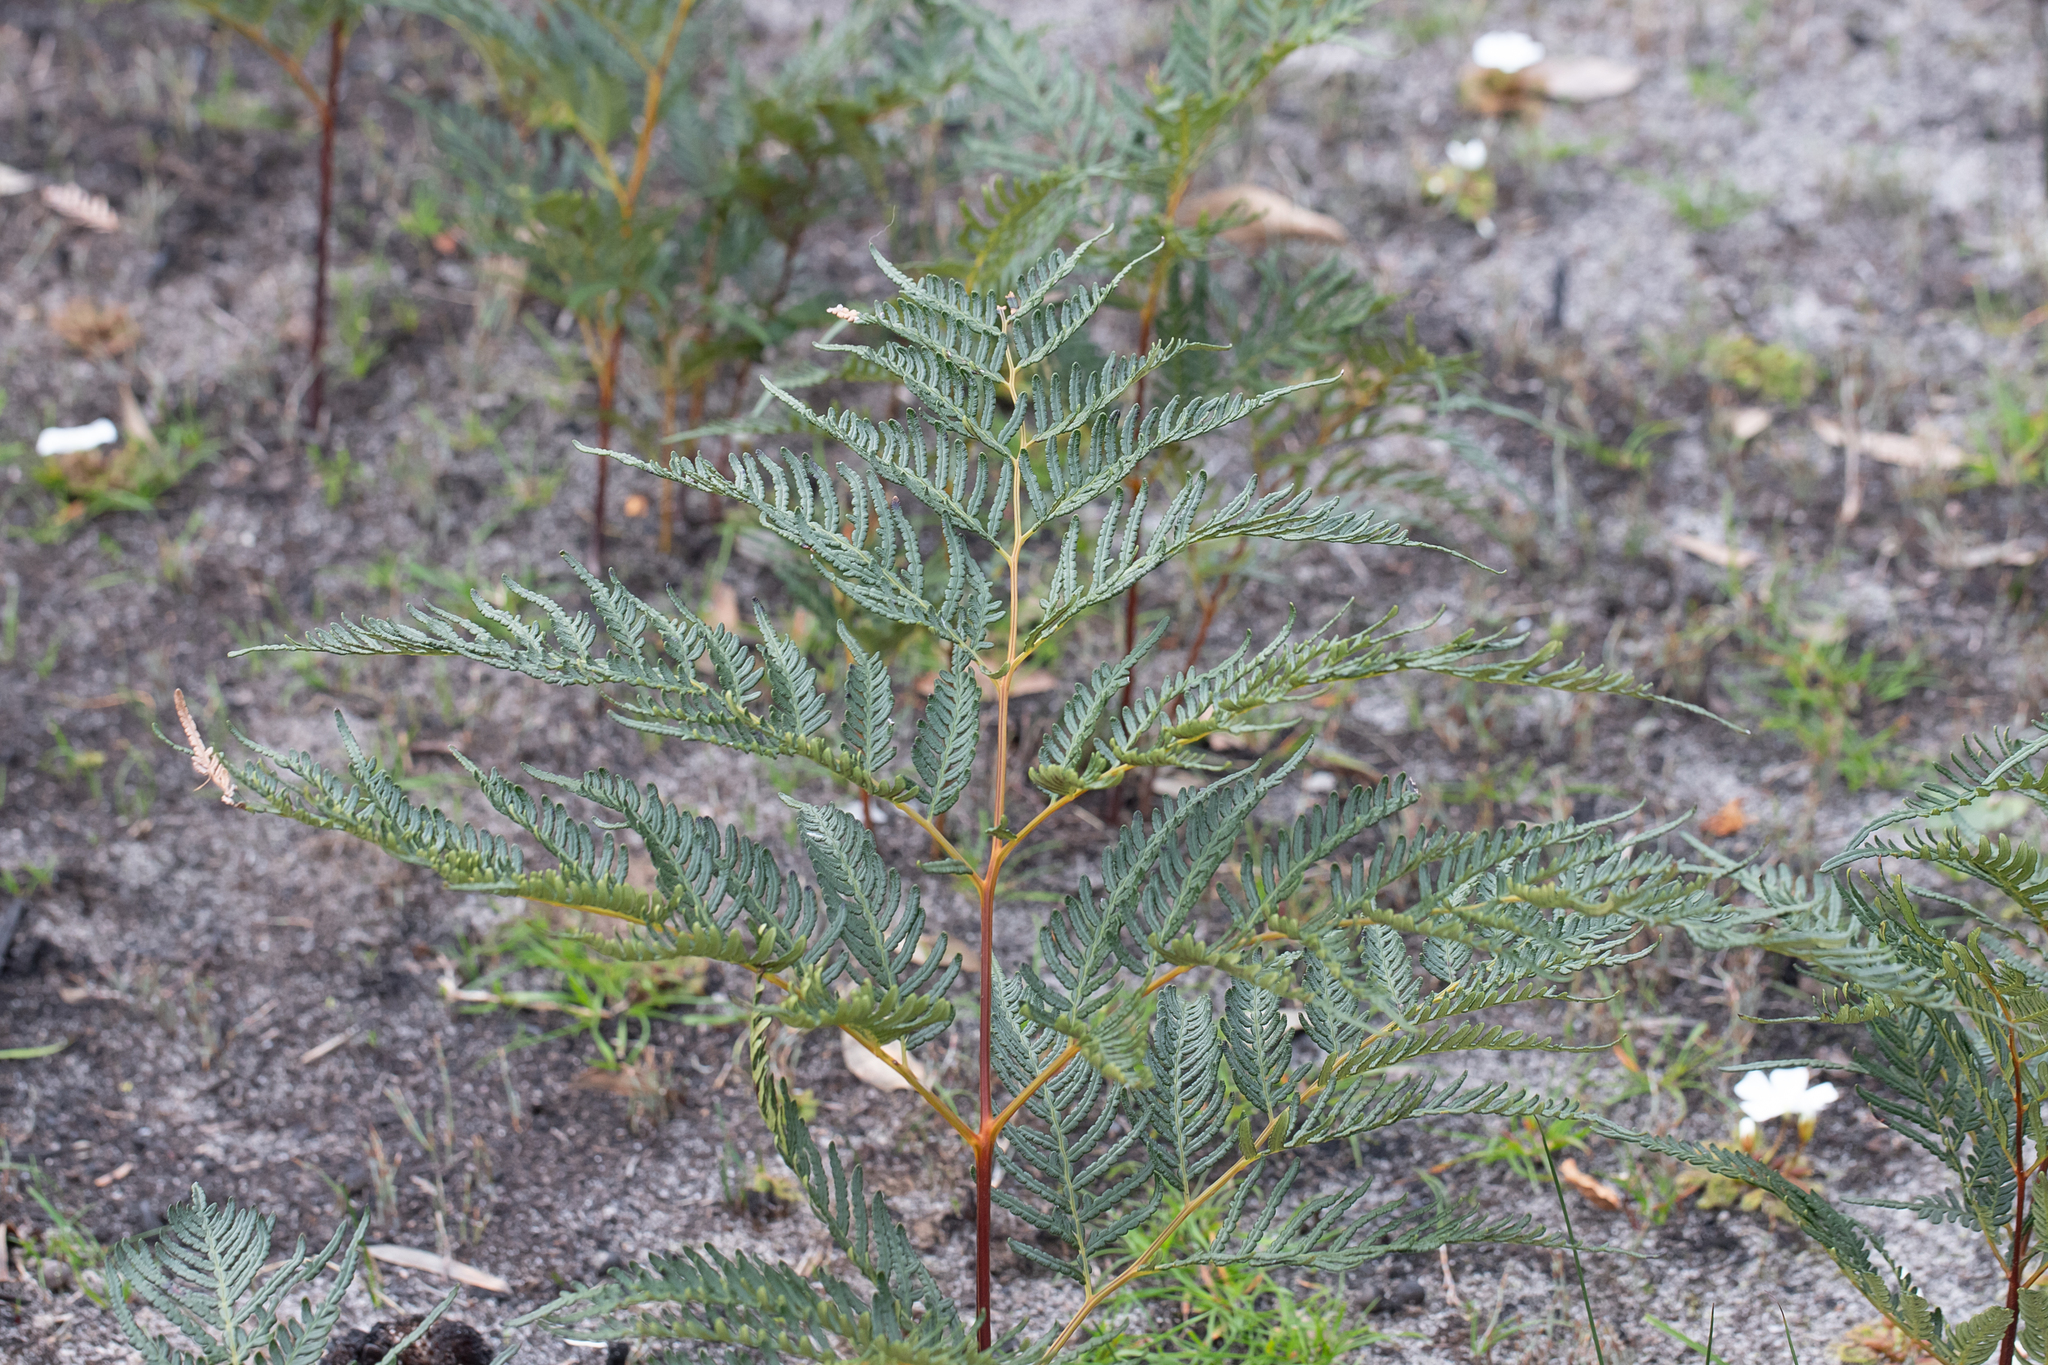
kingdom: Plantae
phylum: Tracheophyta
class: Polypodiopsida
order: Polypodiales
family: Dennstaedtiaceae
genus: Pteridium
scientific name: Pteridium esculentum
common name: Bracken fern
